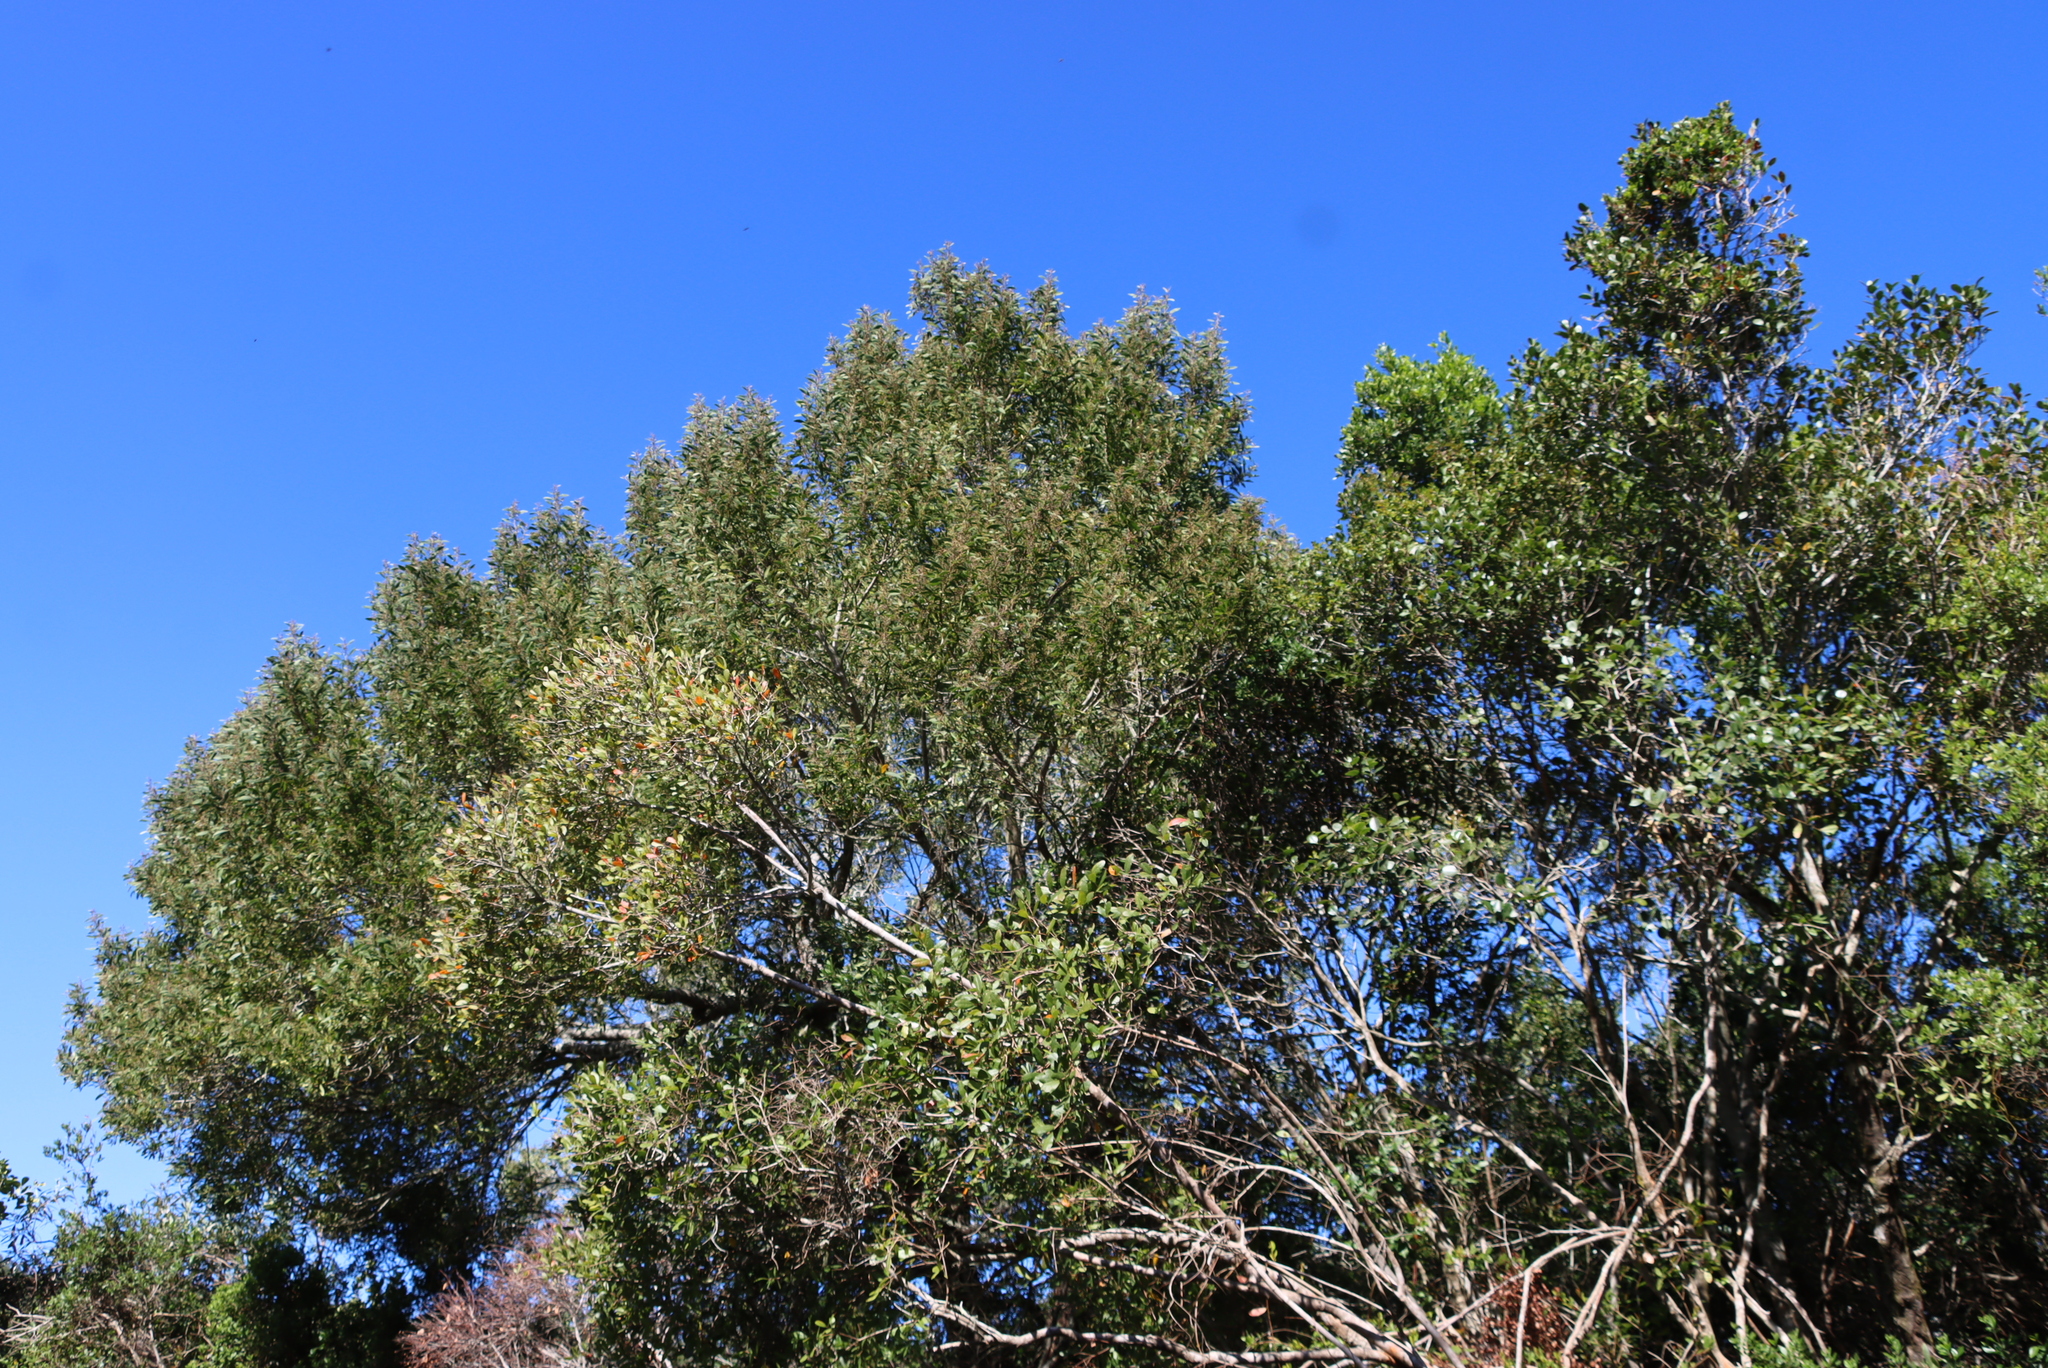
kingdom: Plantae
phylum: Tracheophyta
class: Magnoliopsida
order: Fabales
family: Fabaceae
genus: Acacia
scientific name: Acacia melanoxylon
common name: Blackwood
